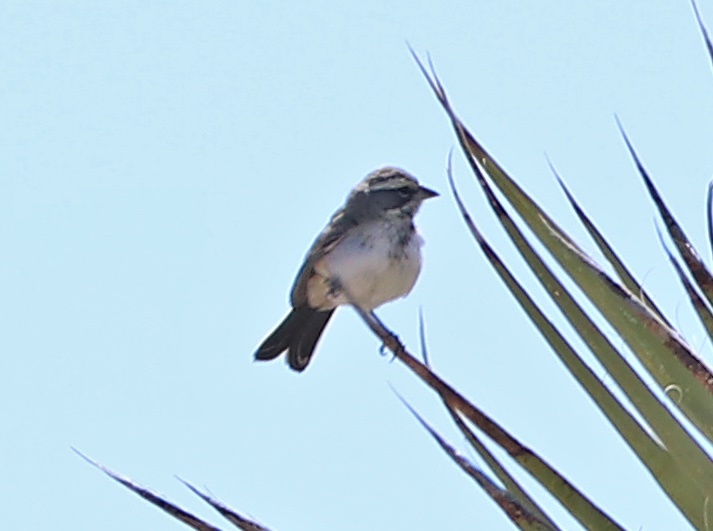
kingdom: Animalia
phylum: Chordata
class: Aves
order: Passeriformes
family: Passerellidae
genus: Amphispiza
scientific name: Amphispiza bilineata
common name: Black-throated sparrow
